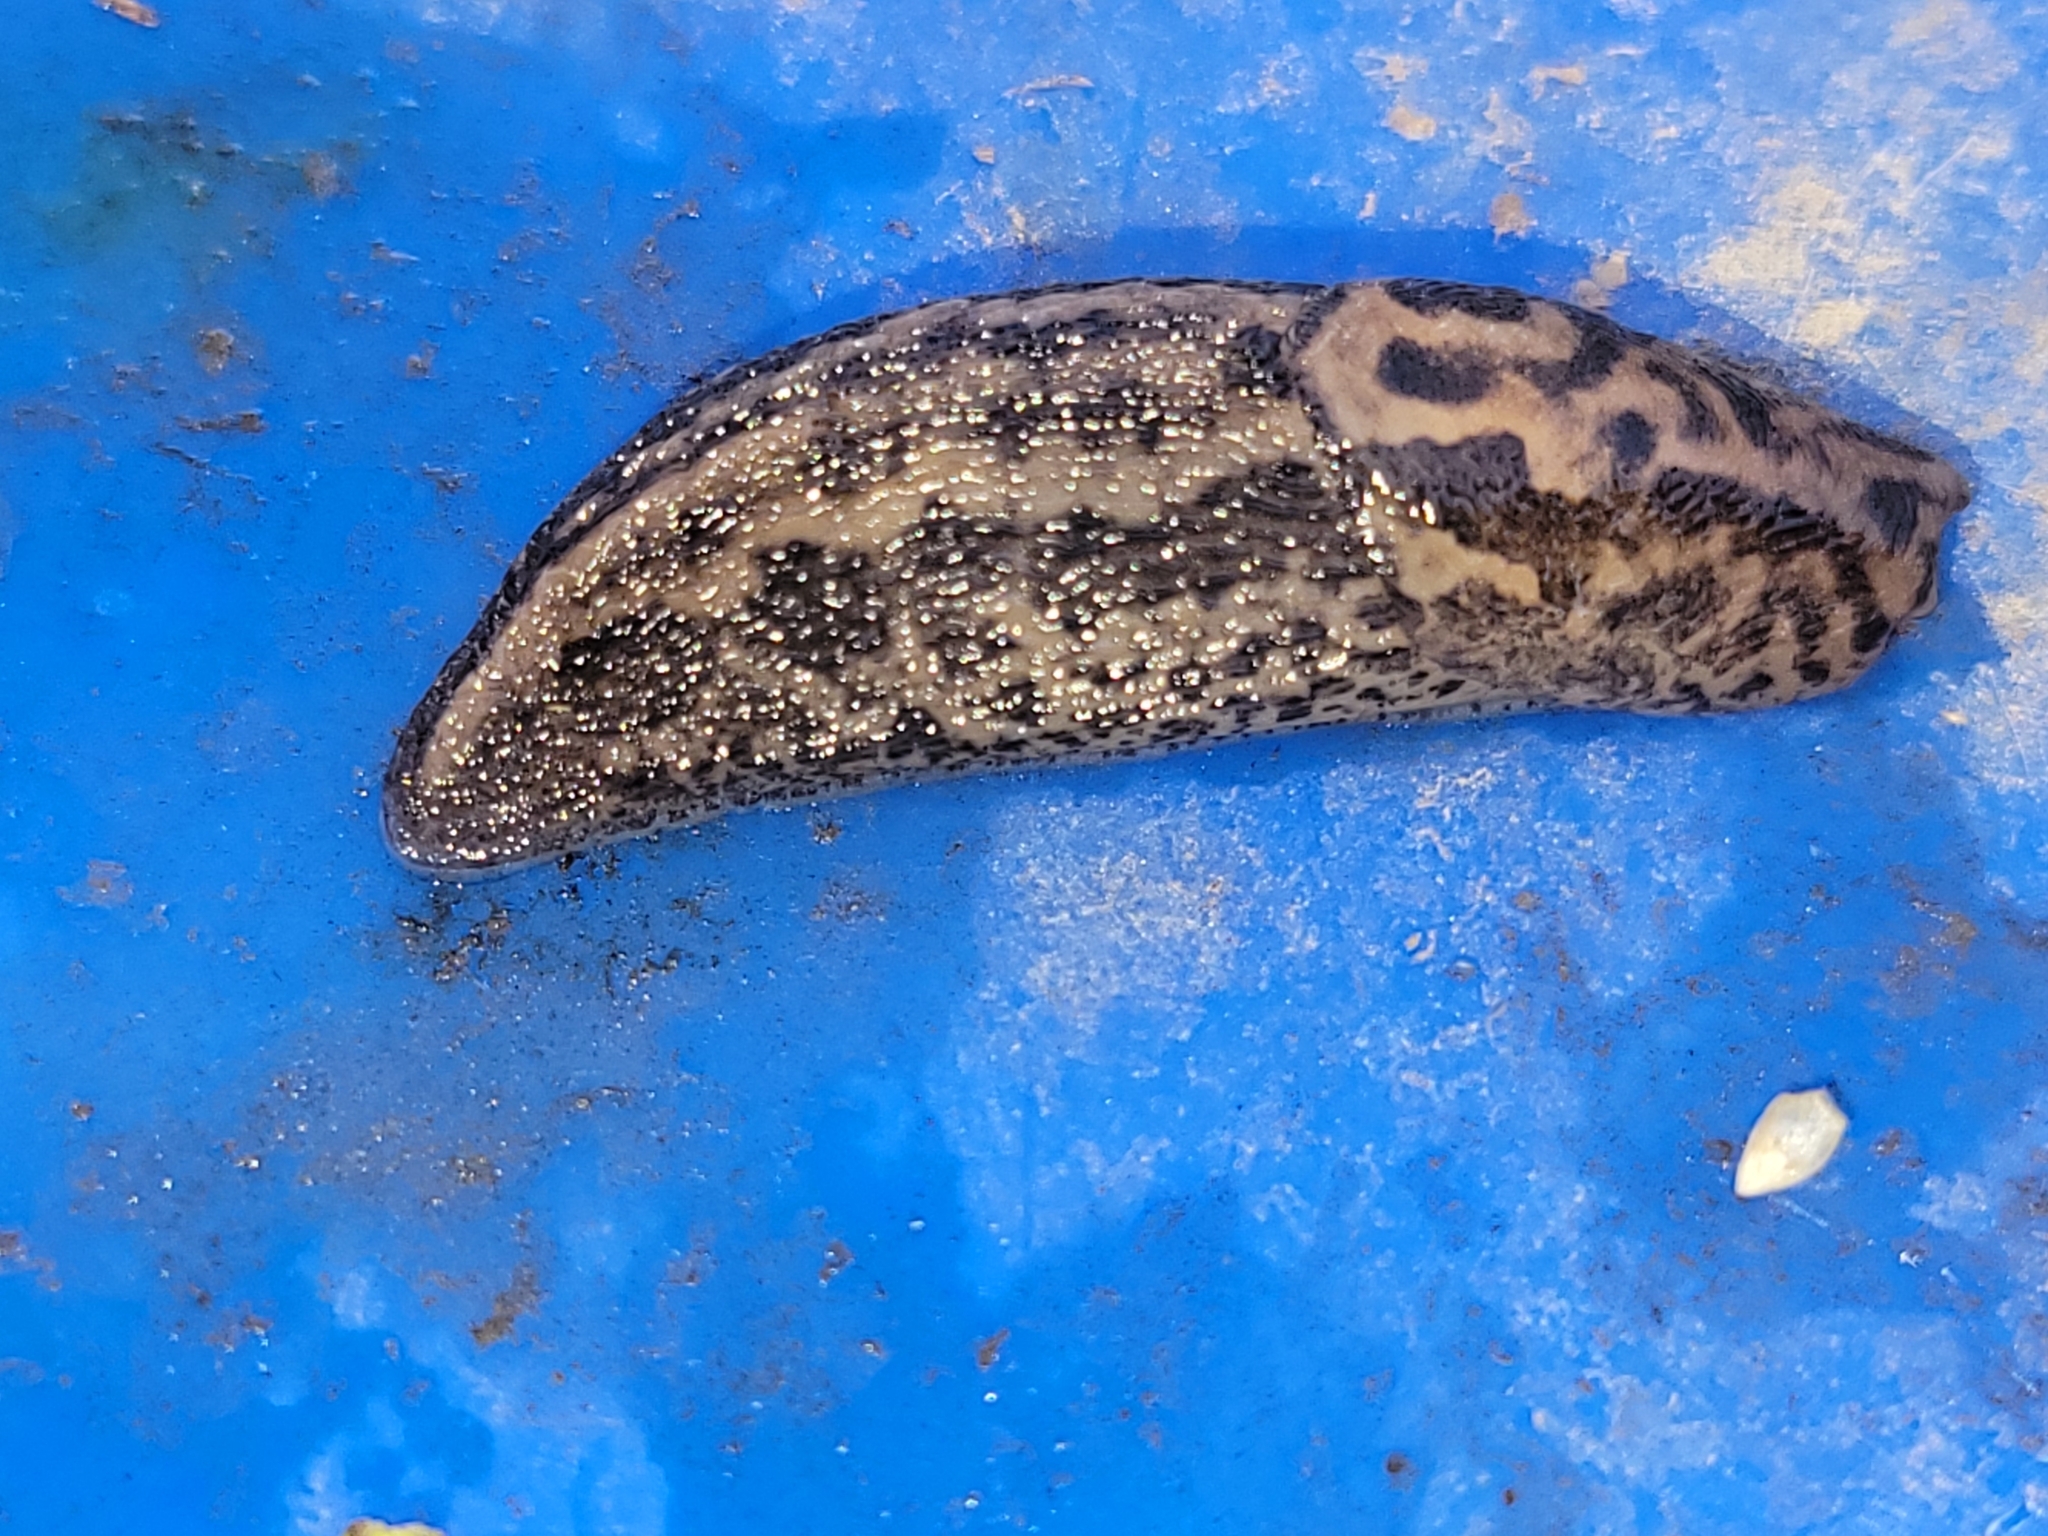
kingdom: Animalia
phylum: Mollusca
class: Gastropoda
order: Stylommatophora
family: Limacidae
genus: Limax
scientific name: Limax maximus
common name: Great grey slug
